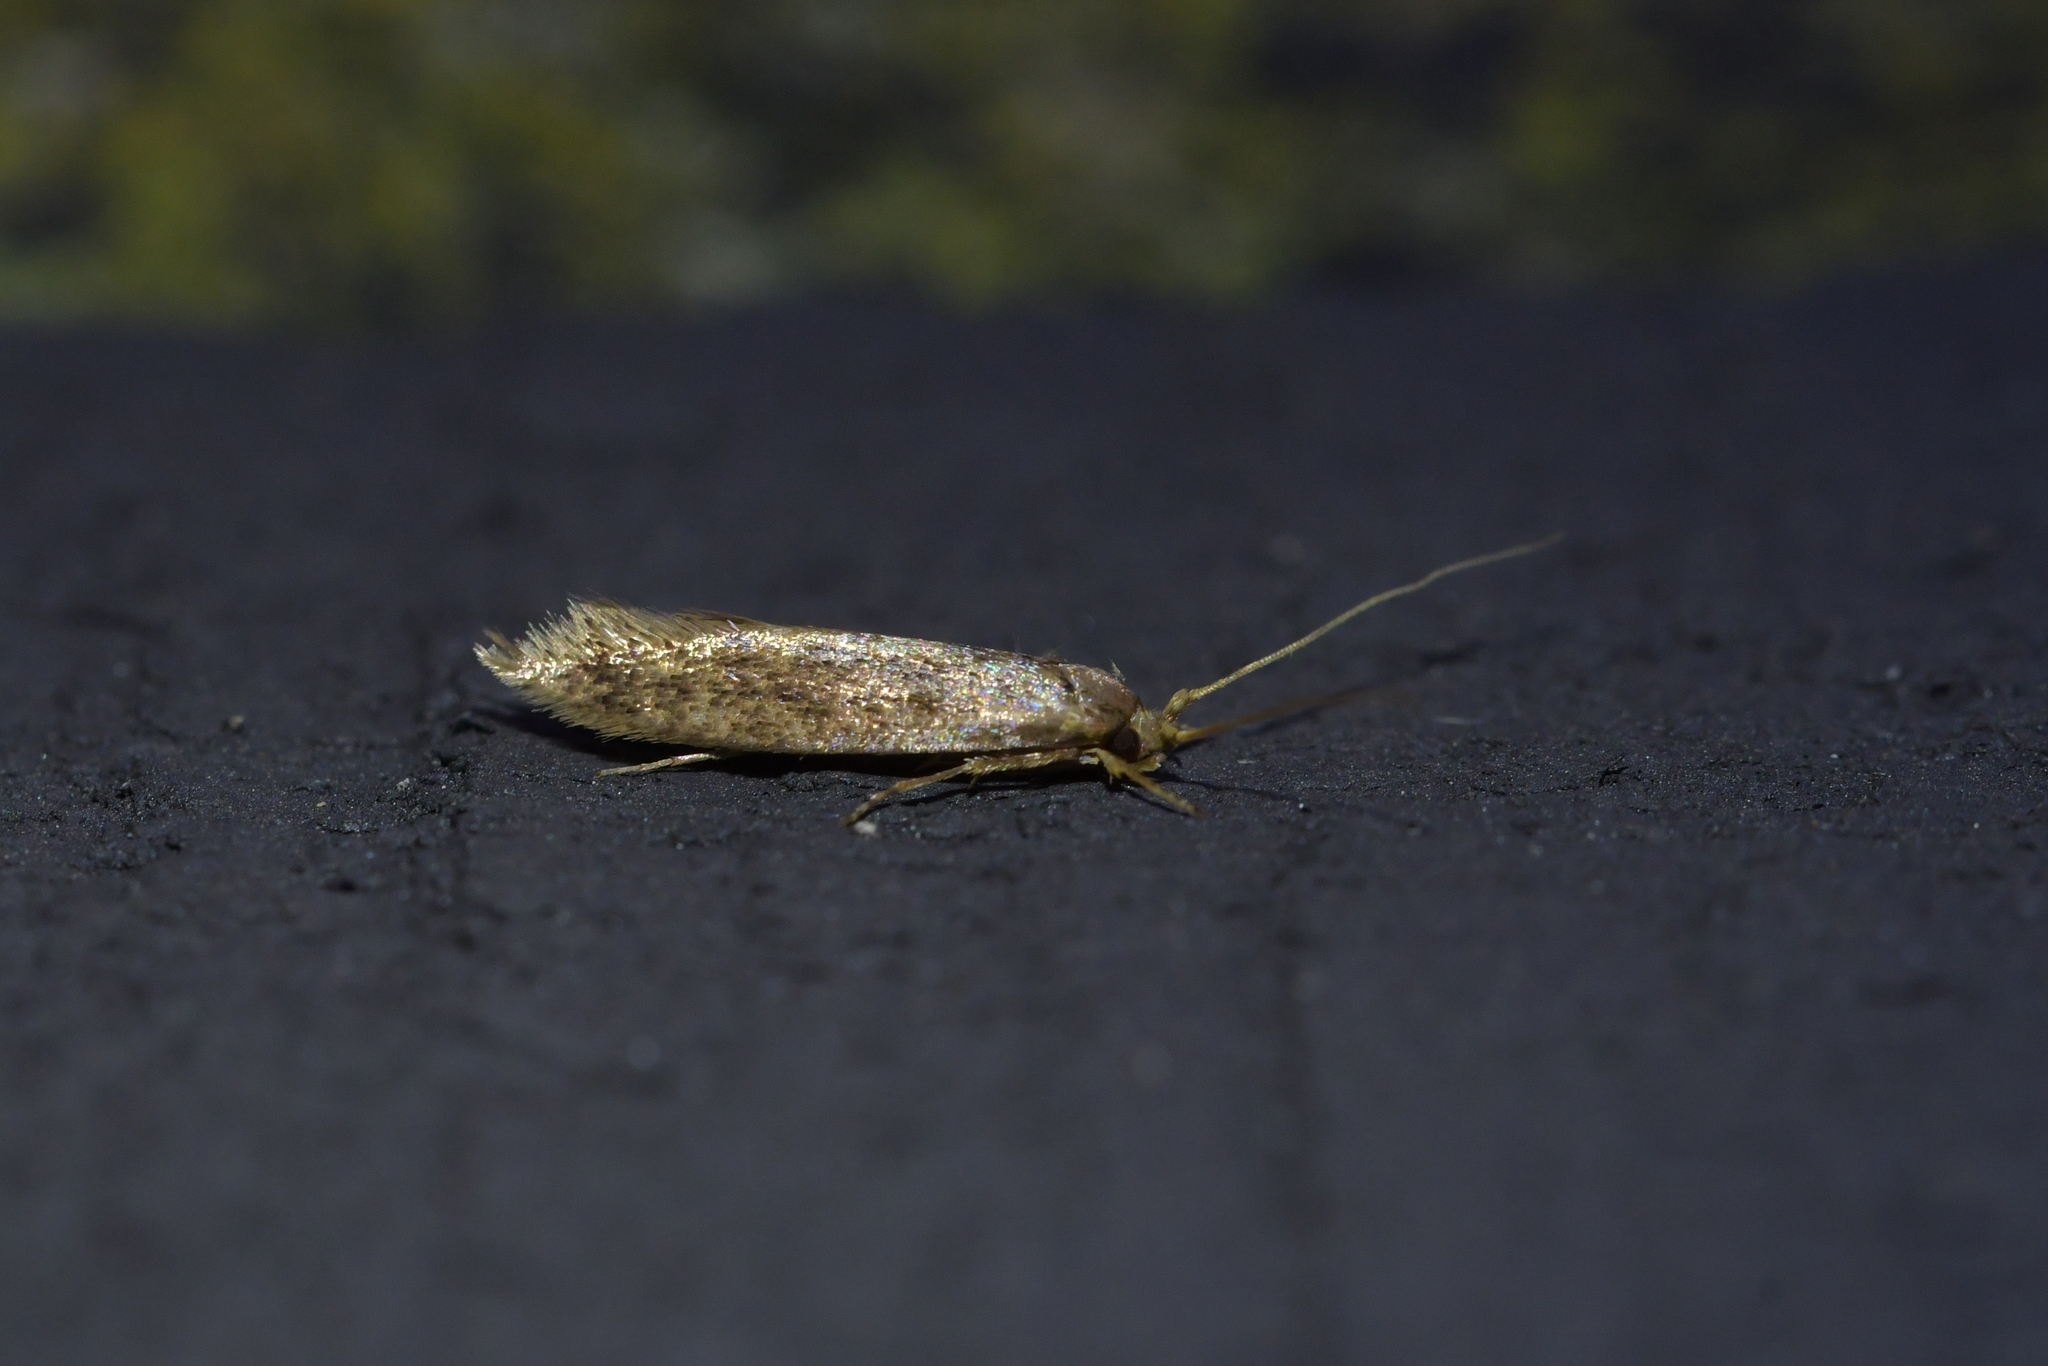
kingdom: Animalia
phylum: Arthropoda
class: Insecta
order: Lepidoptera
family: Tineidae
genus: Opogona
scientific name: Opogona omoscopa
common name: Moth
